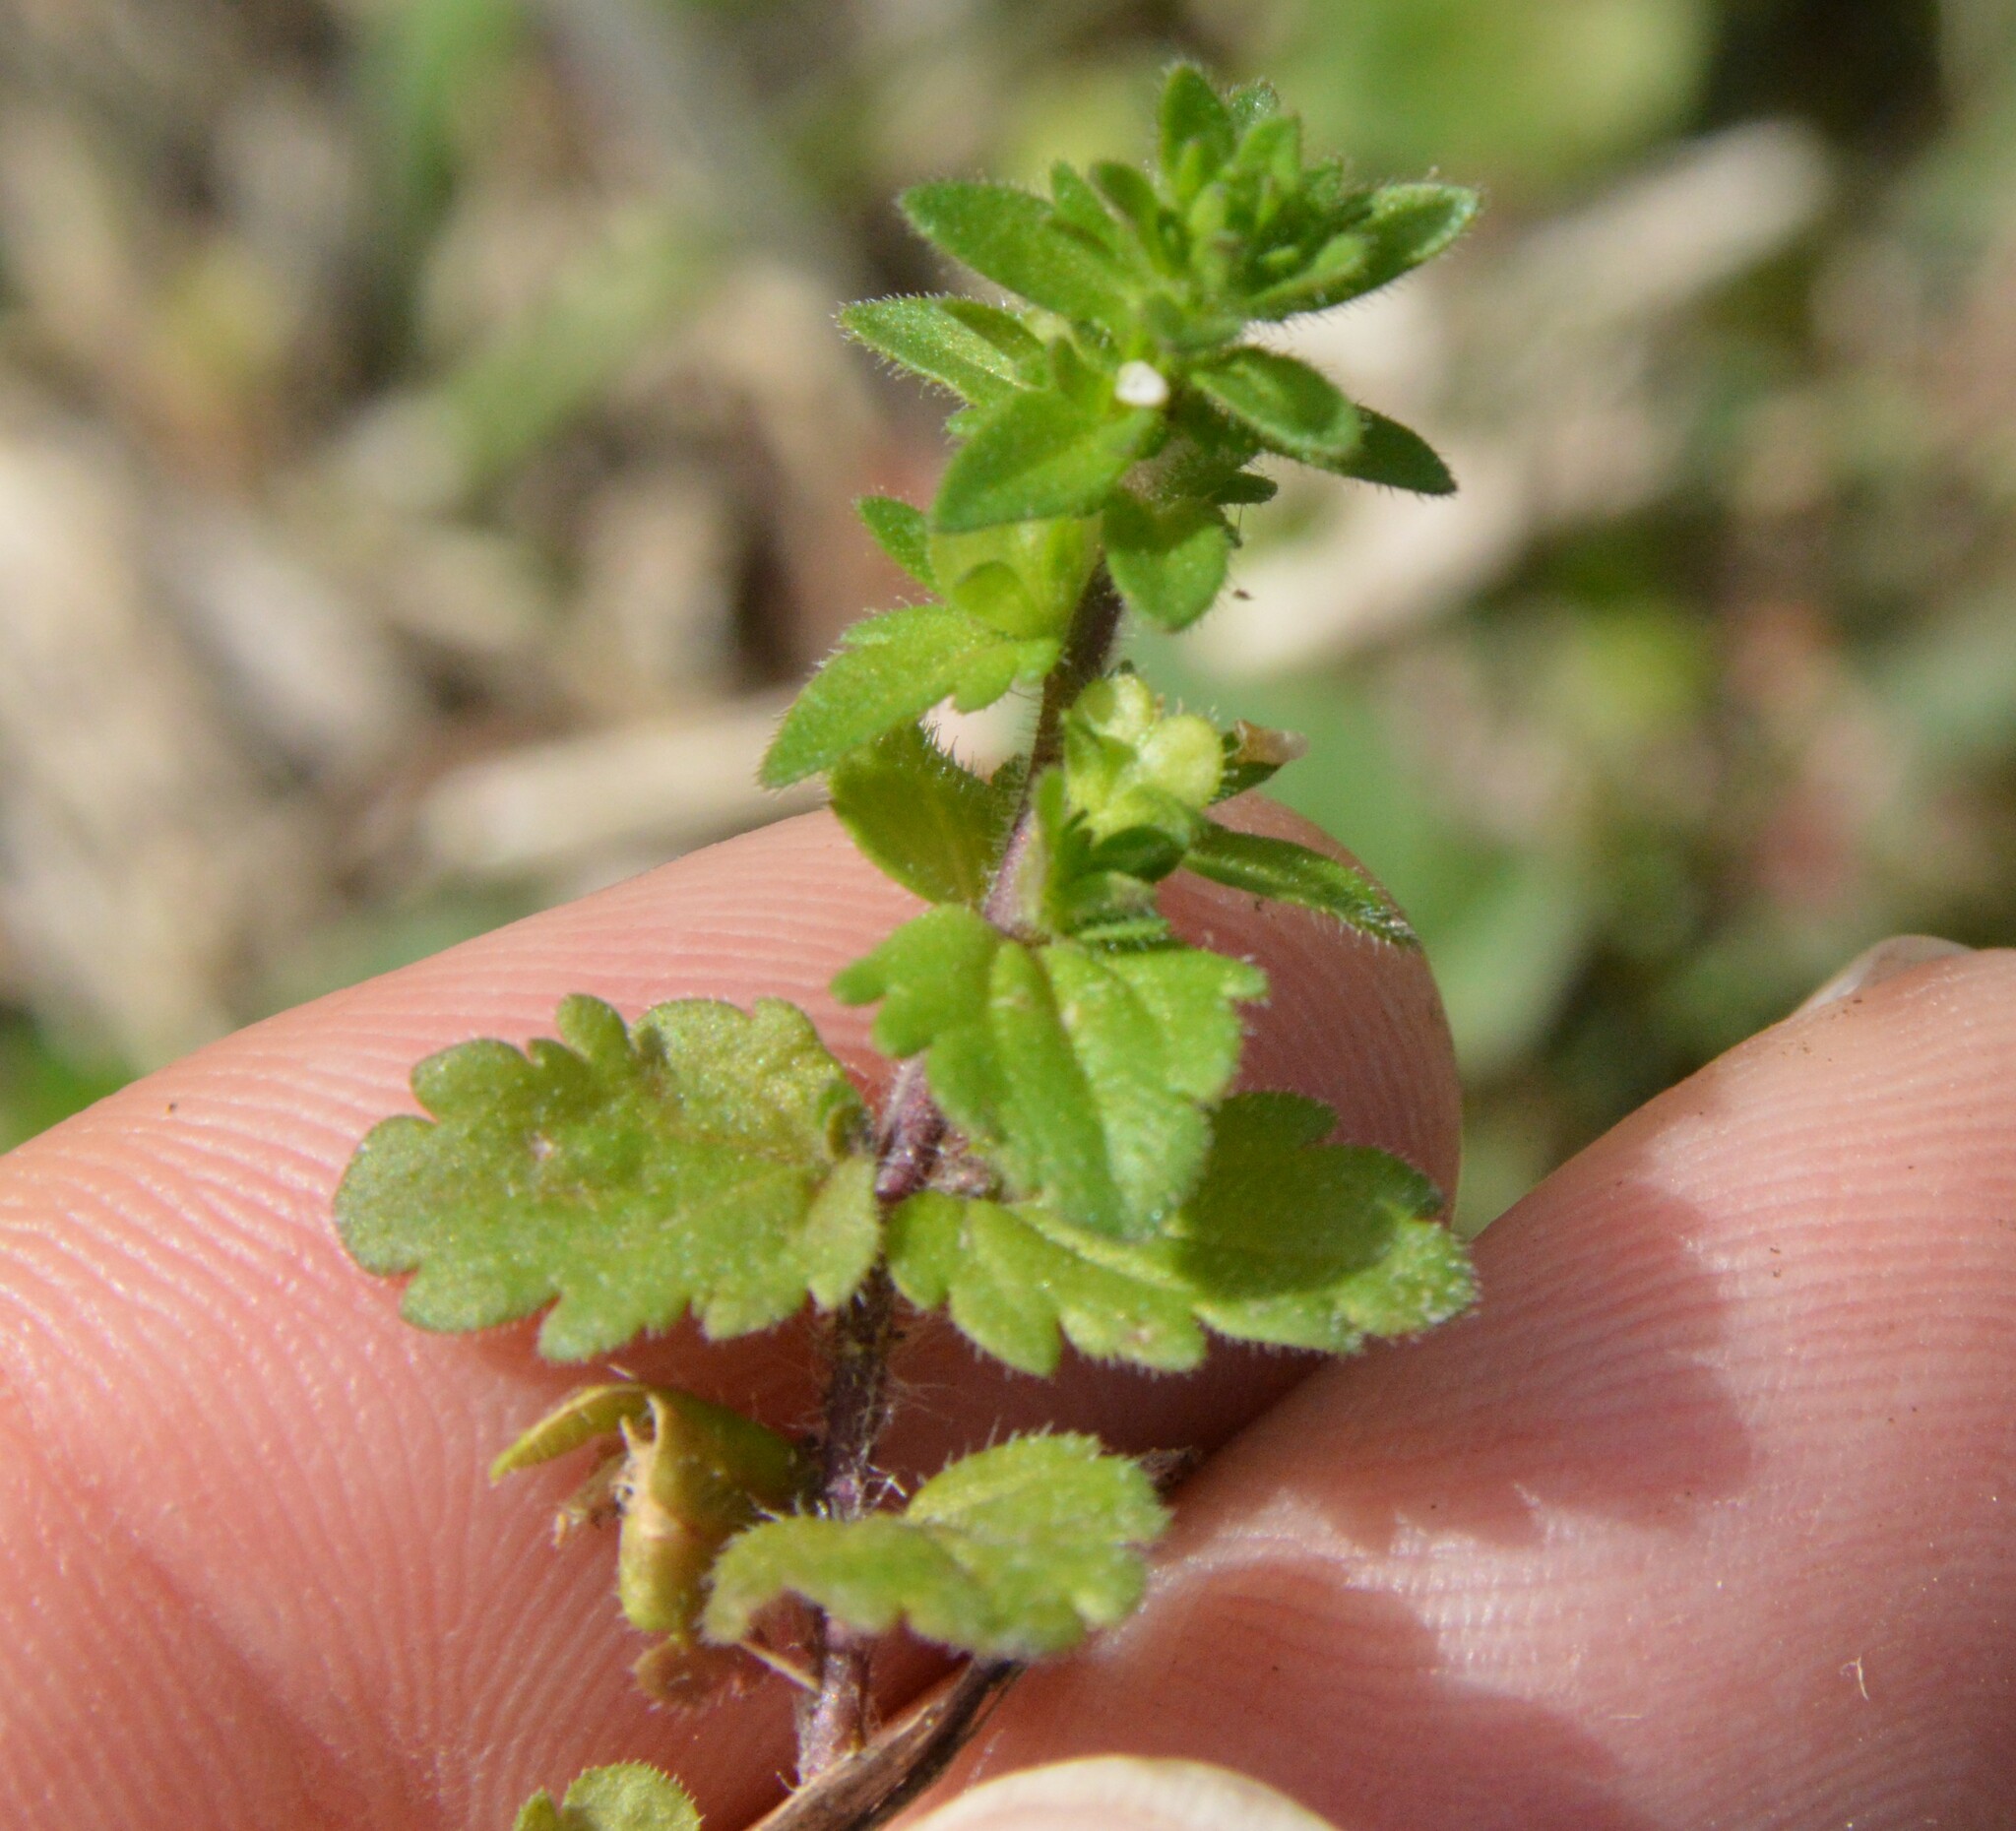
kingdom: Plantae
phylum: Tracheophyta
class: Magnoliopsida
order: Lamiales
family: Plantaginaceae
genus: Veronica
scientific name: Veronica arvensis
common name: Corn speedwell
